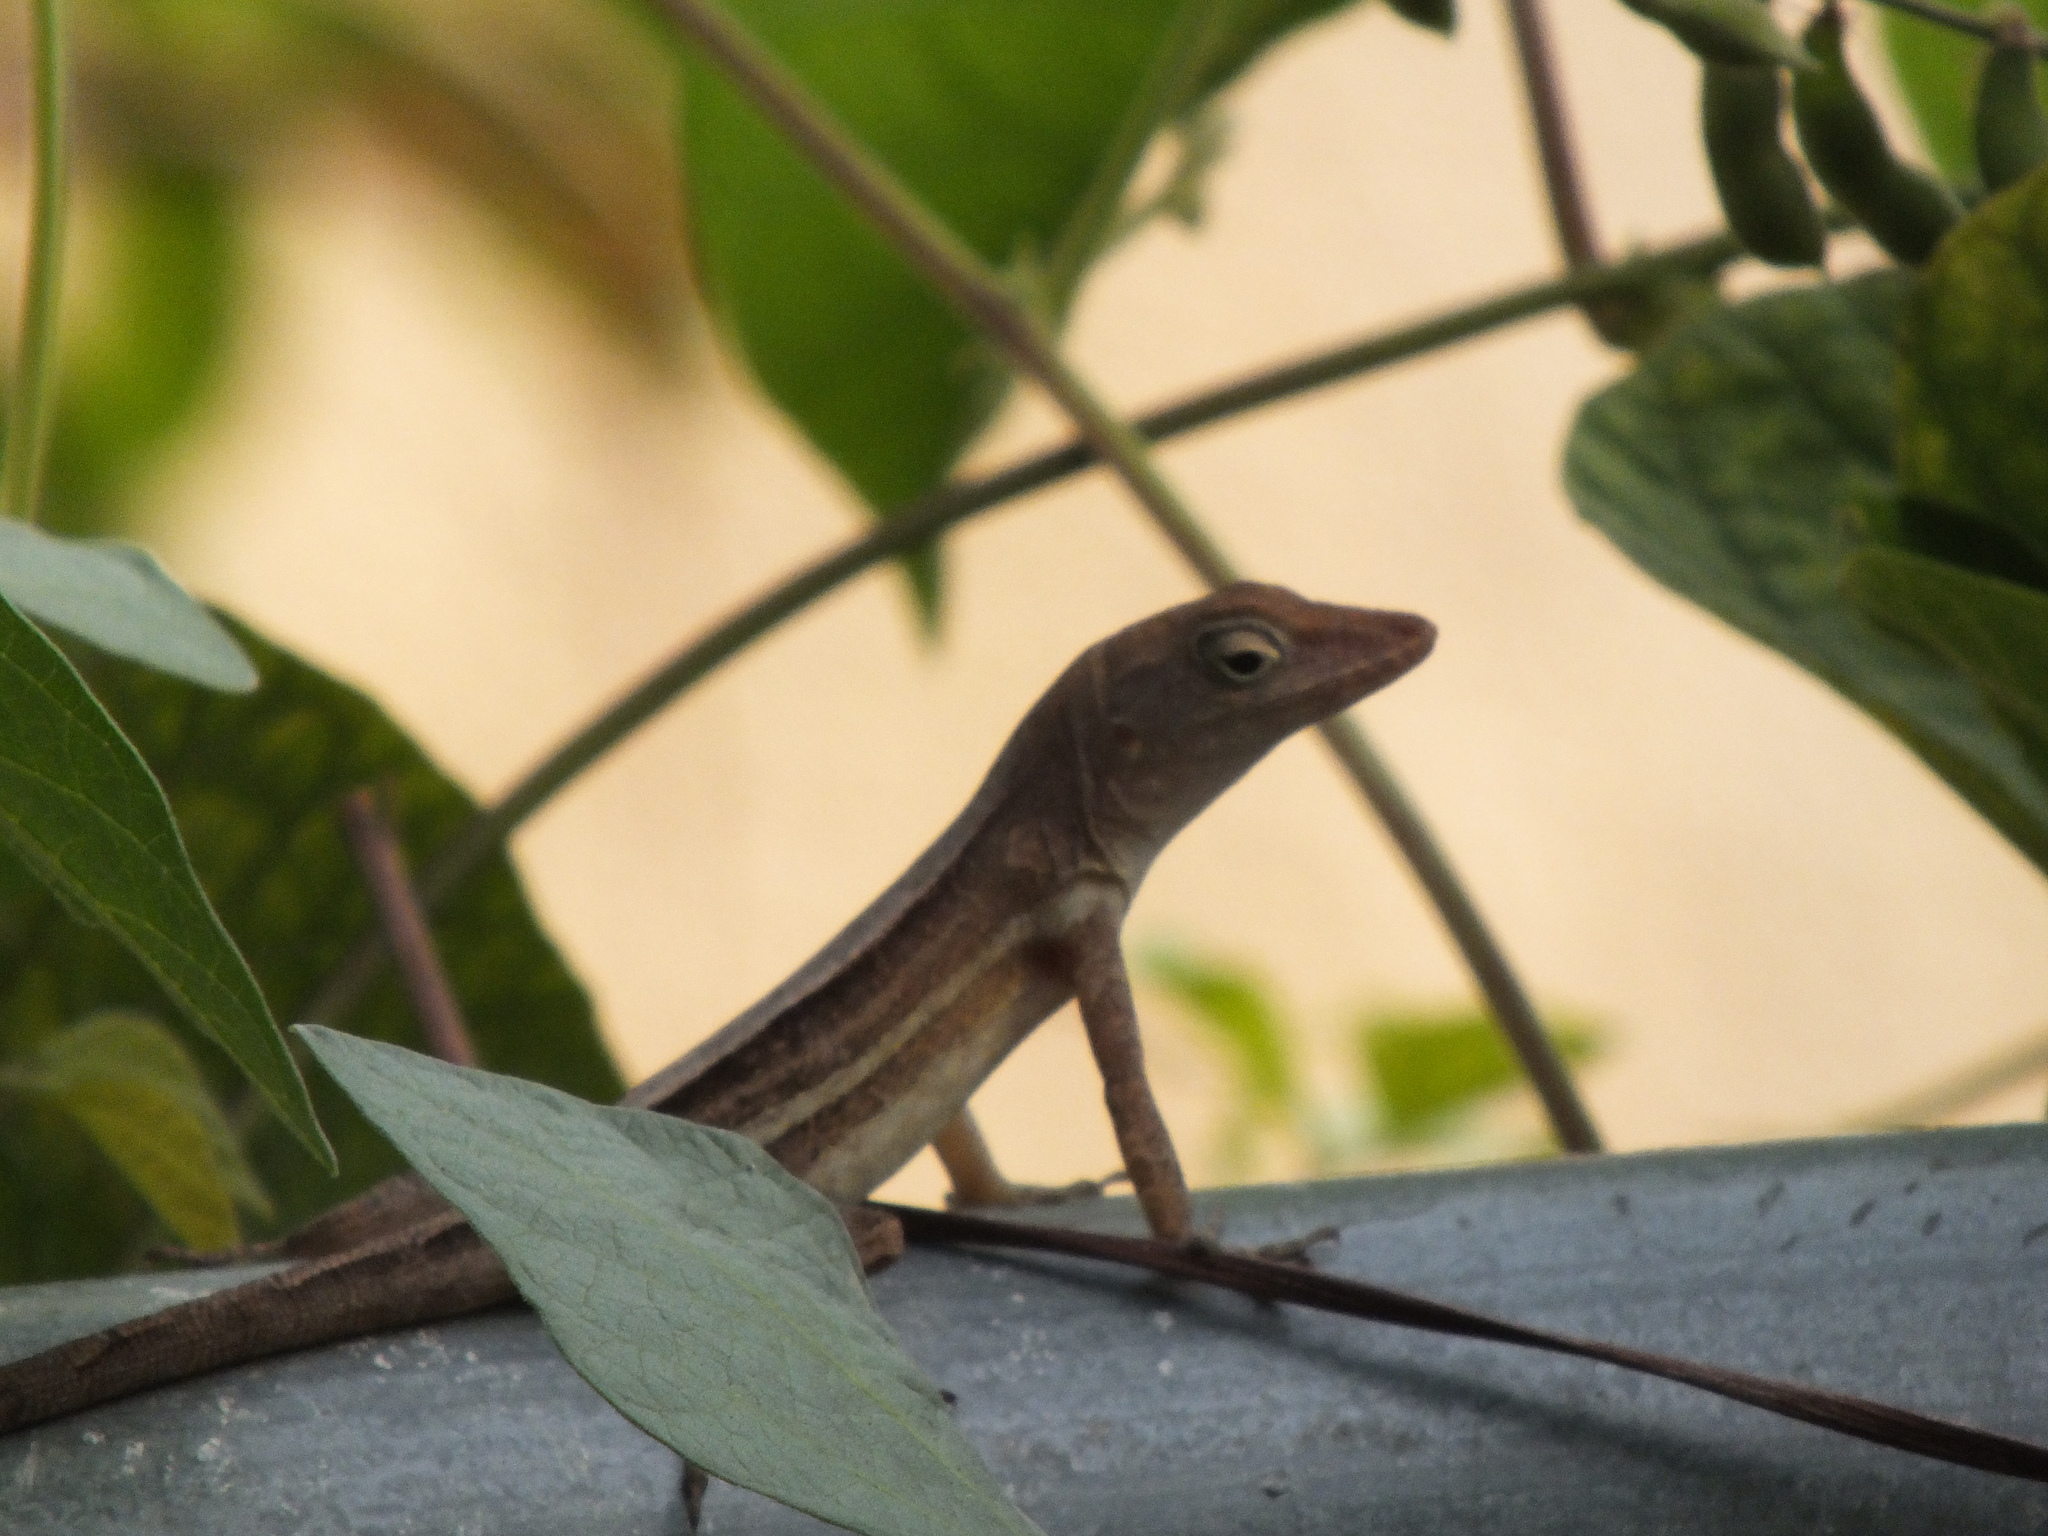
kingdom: Animalia
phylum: Chordata
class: Squamata
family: Dactyloidae
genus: Anolis
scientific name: Anolis lineatopus
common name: Stripefoot anole
